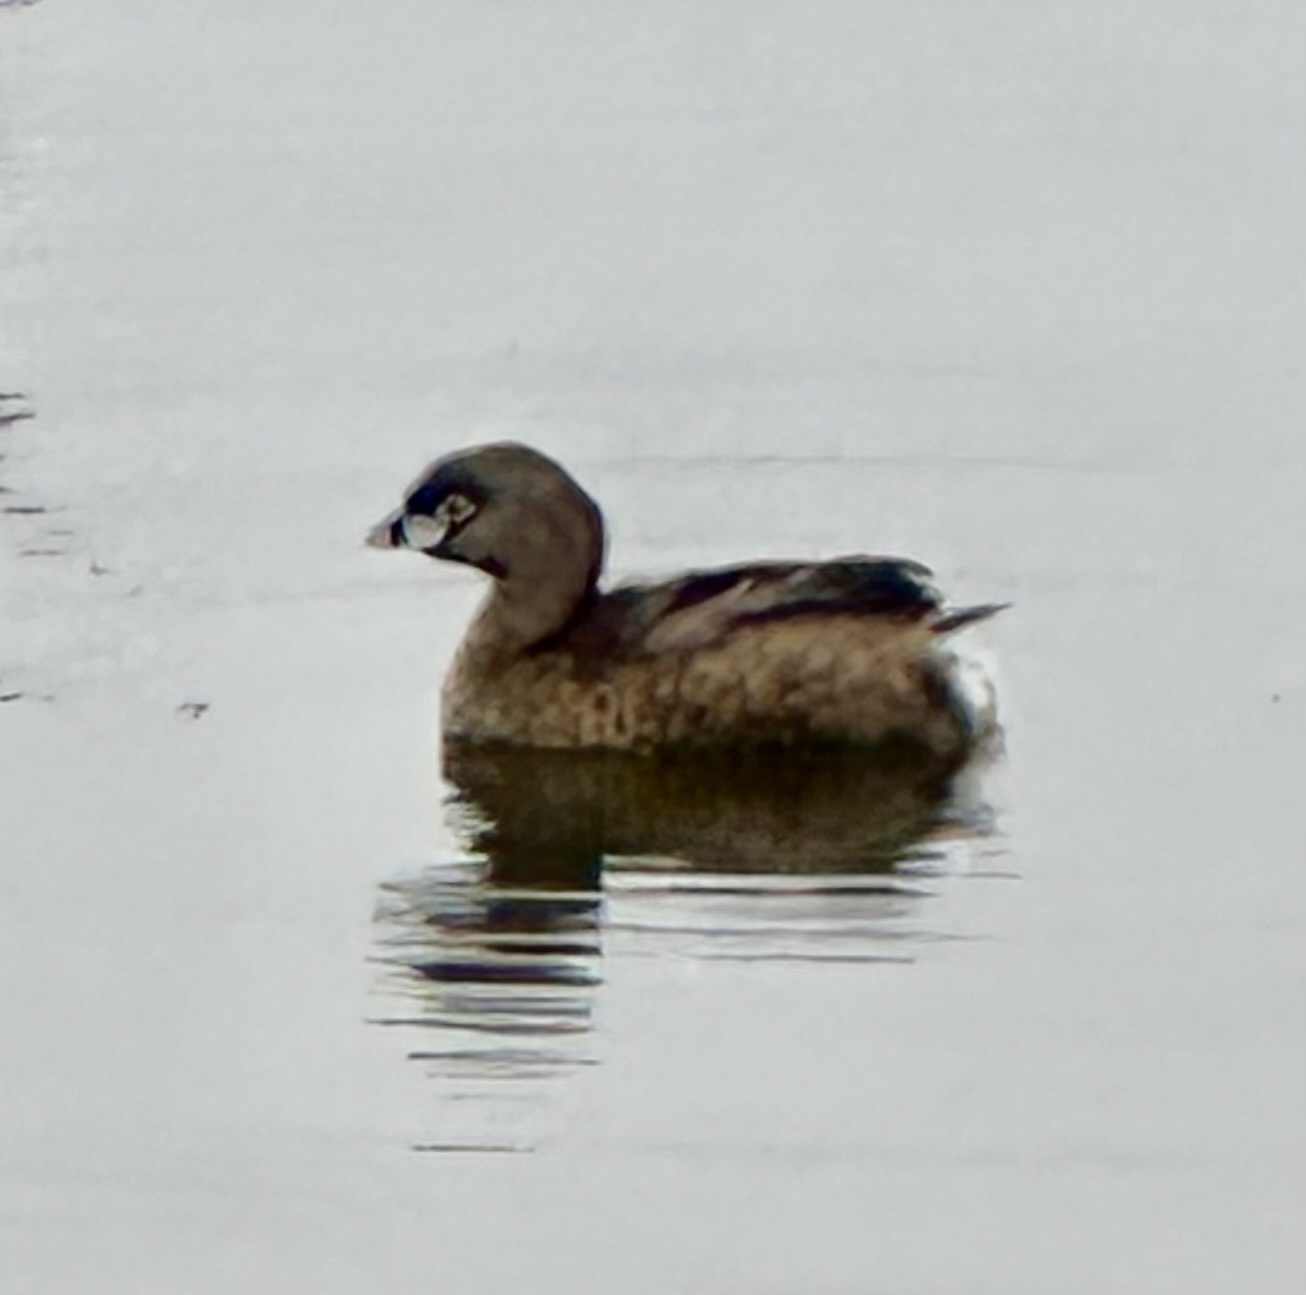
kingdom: Animalia
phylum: Chordata
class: Aves
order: Podicipediformes
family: Podicipedidae
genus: Podilymbus
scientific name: Podilymbus podiceps
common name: Pied-billed grebe
